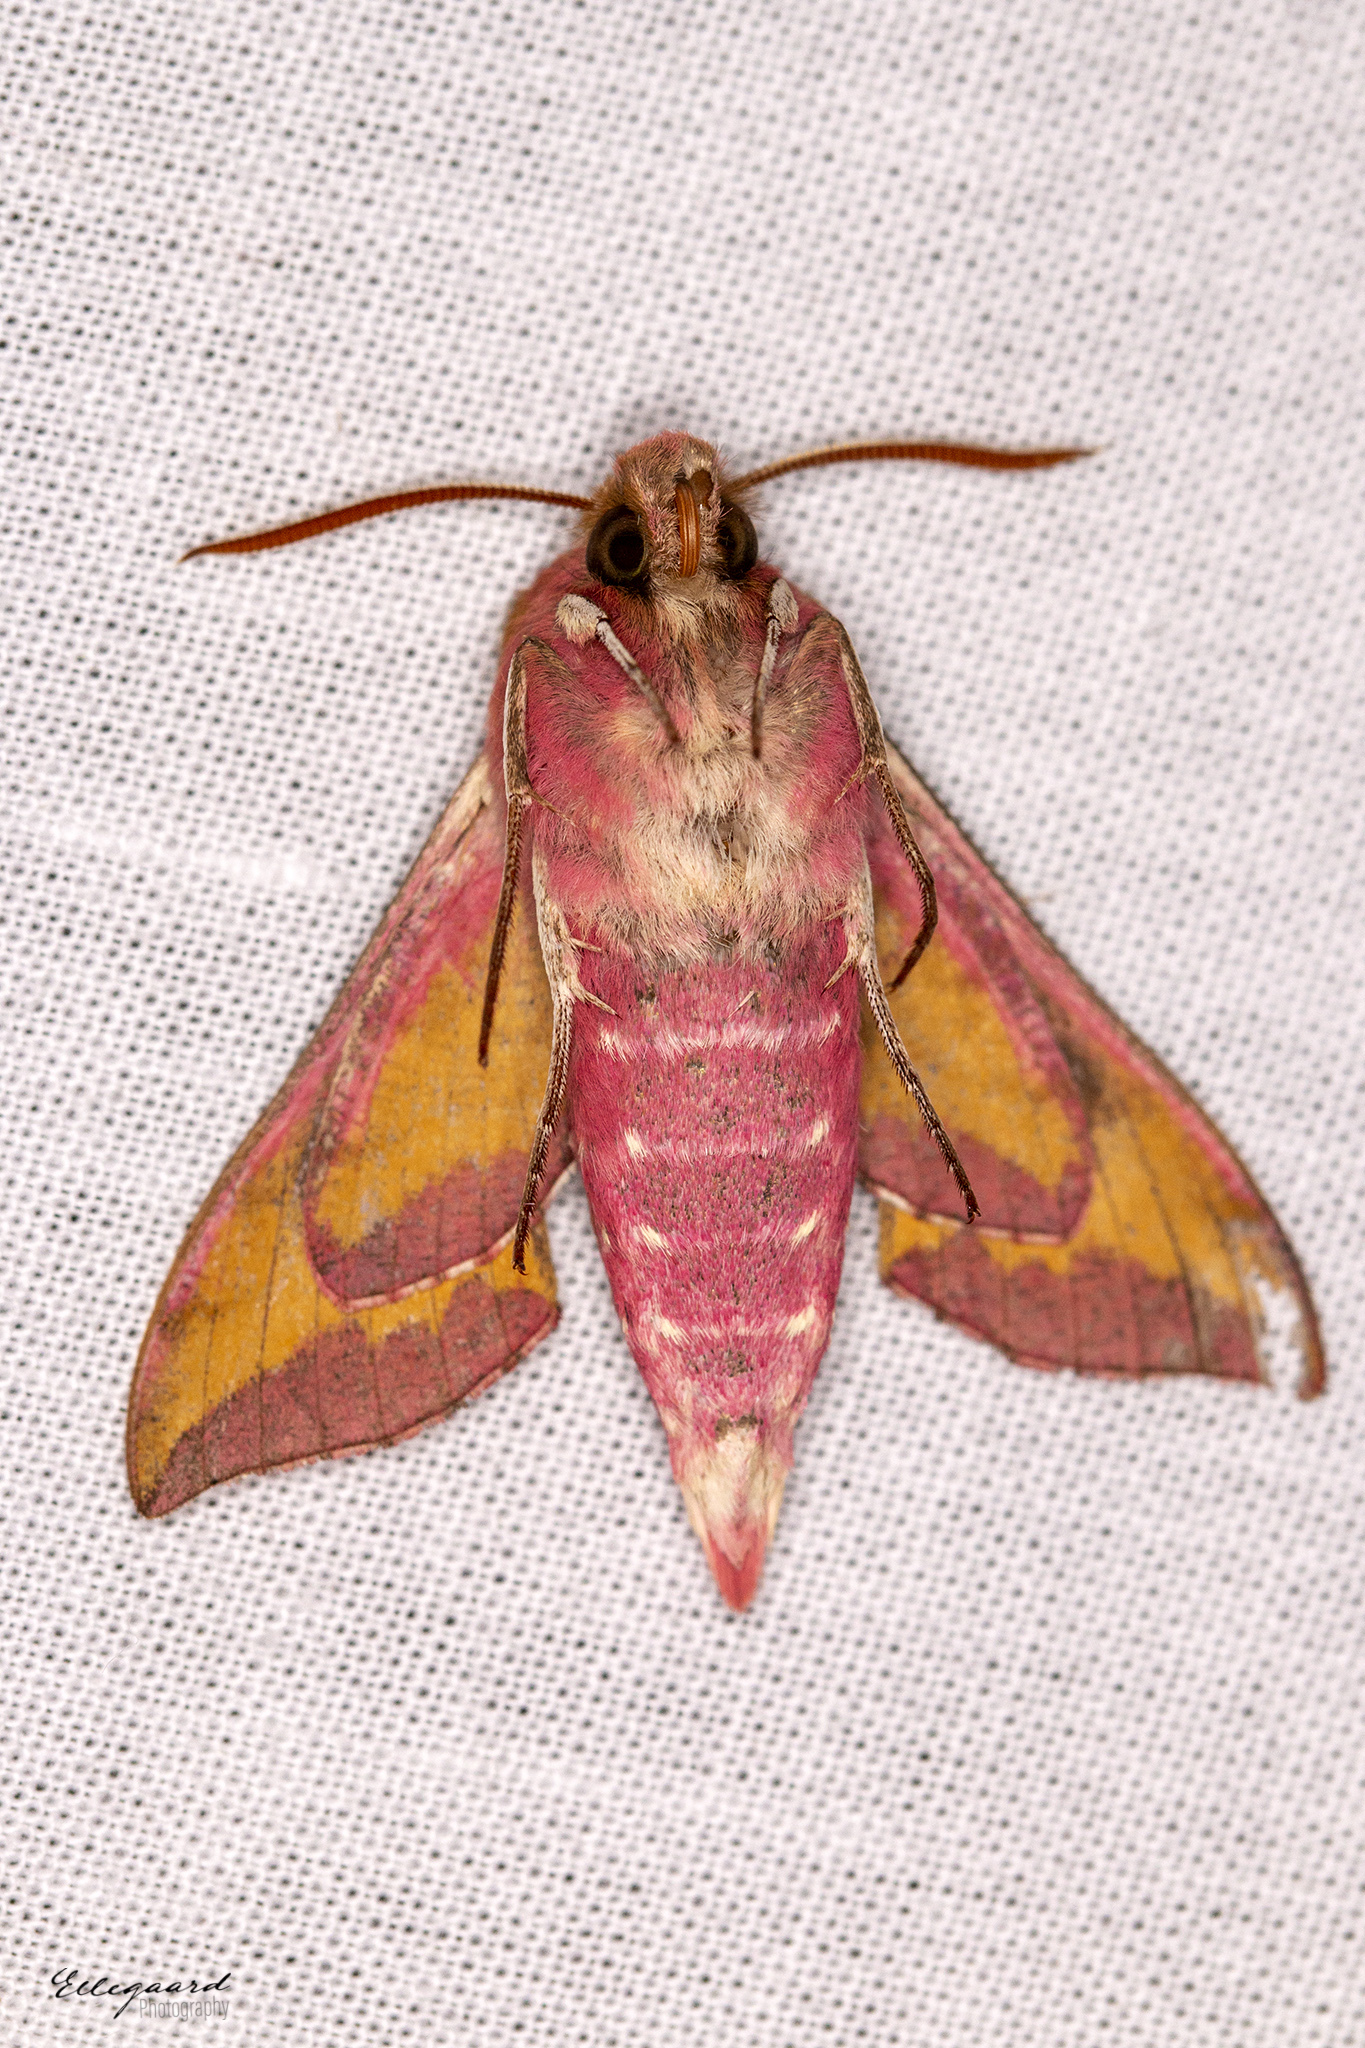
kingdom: Animalia
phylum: Arthropoda
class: Insecta
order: Lepidoptera
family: Sphingidae
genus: Deilephila
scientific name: Deilephila porcellus
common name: Small elephant hawk-moth
